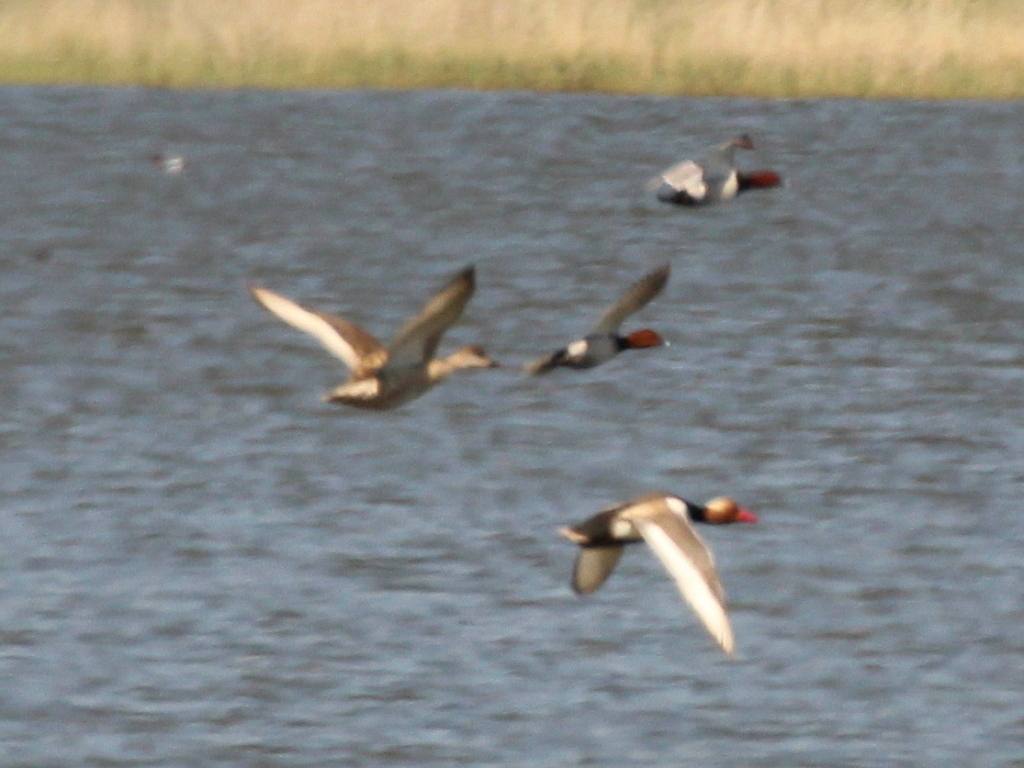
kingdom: Animalia
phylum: Chordata
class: Aves
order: Anseriformes
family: Anatidae
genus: Netta
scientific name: Netta rufina
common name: Red-crested pochard
